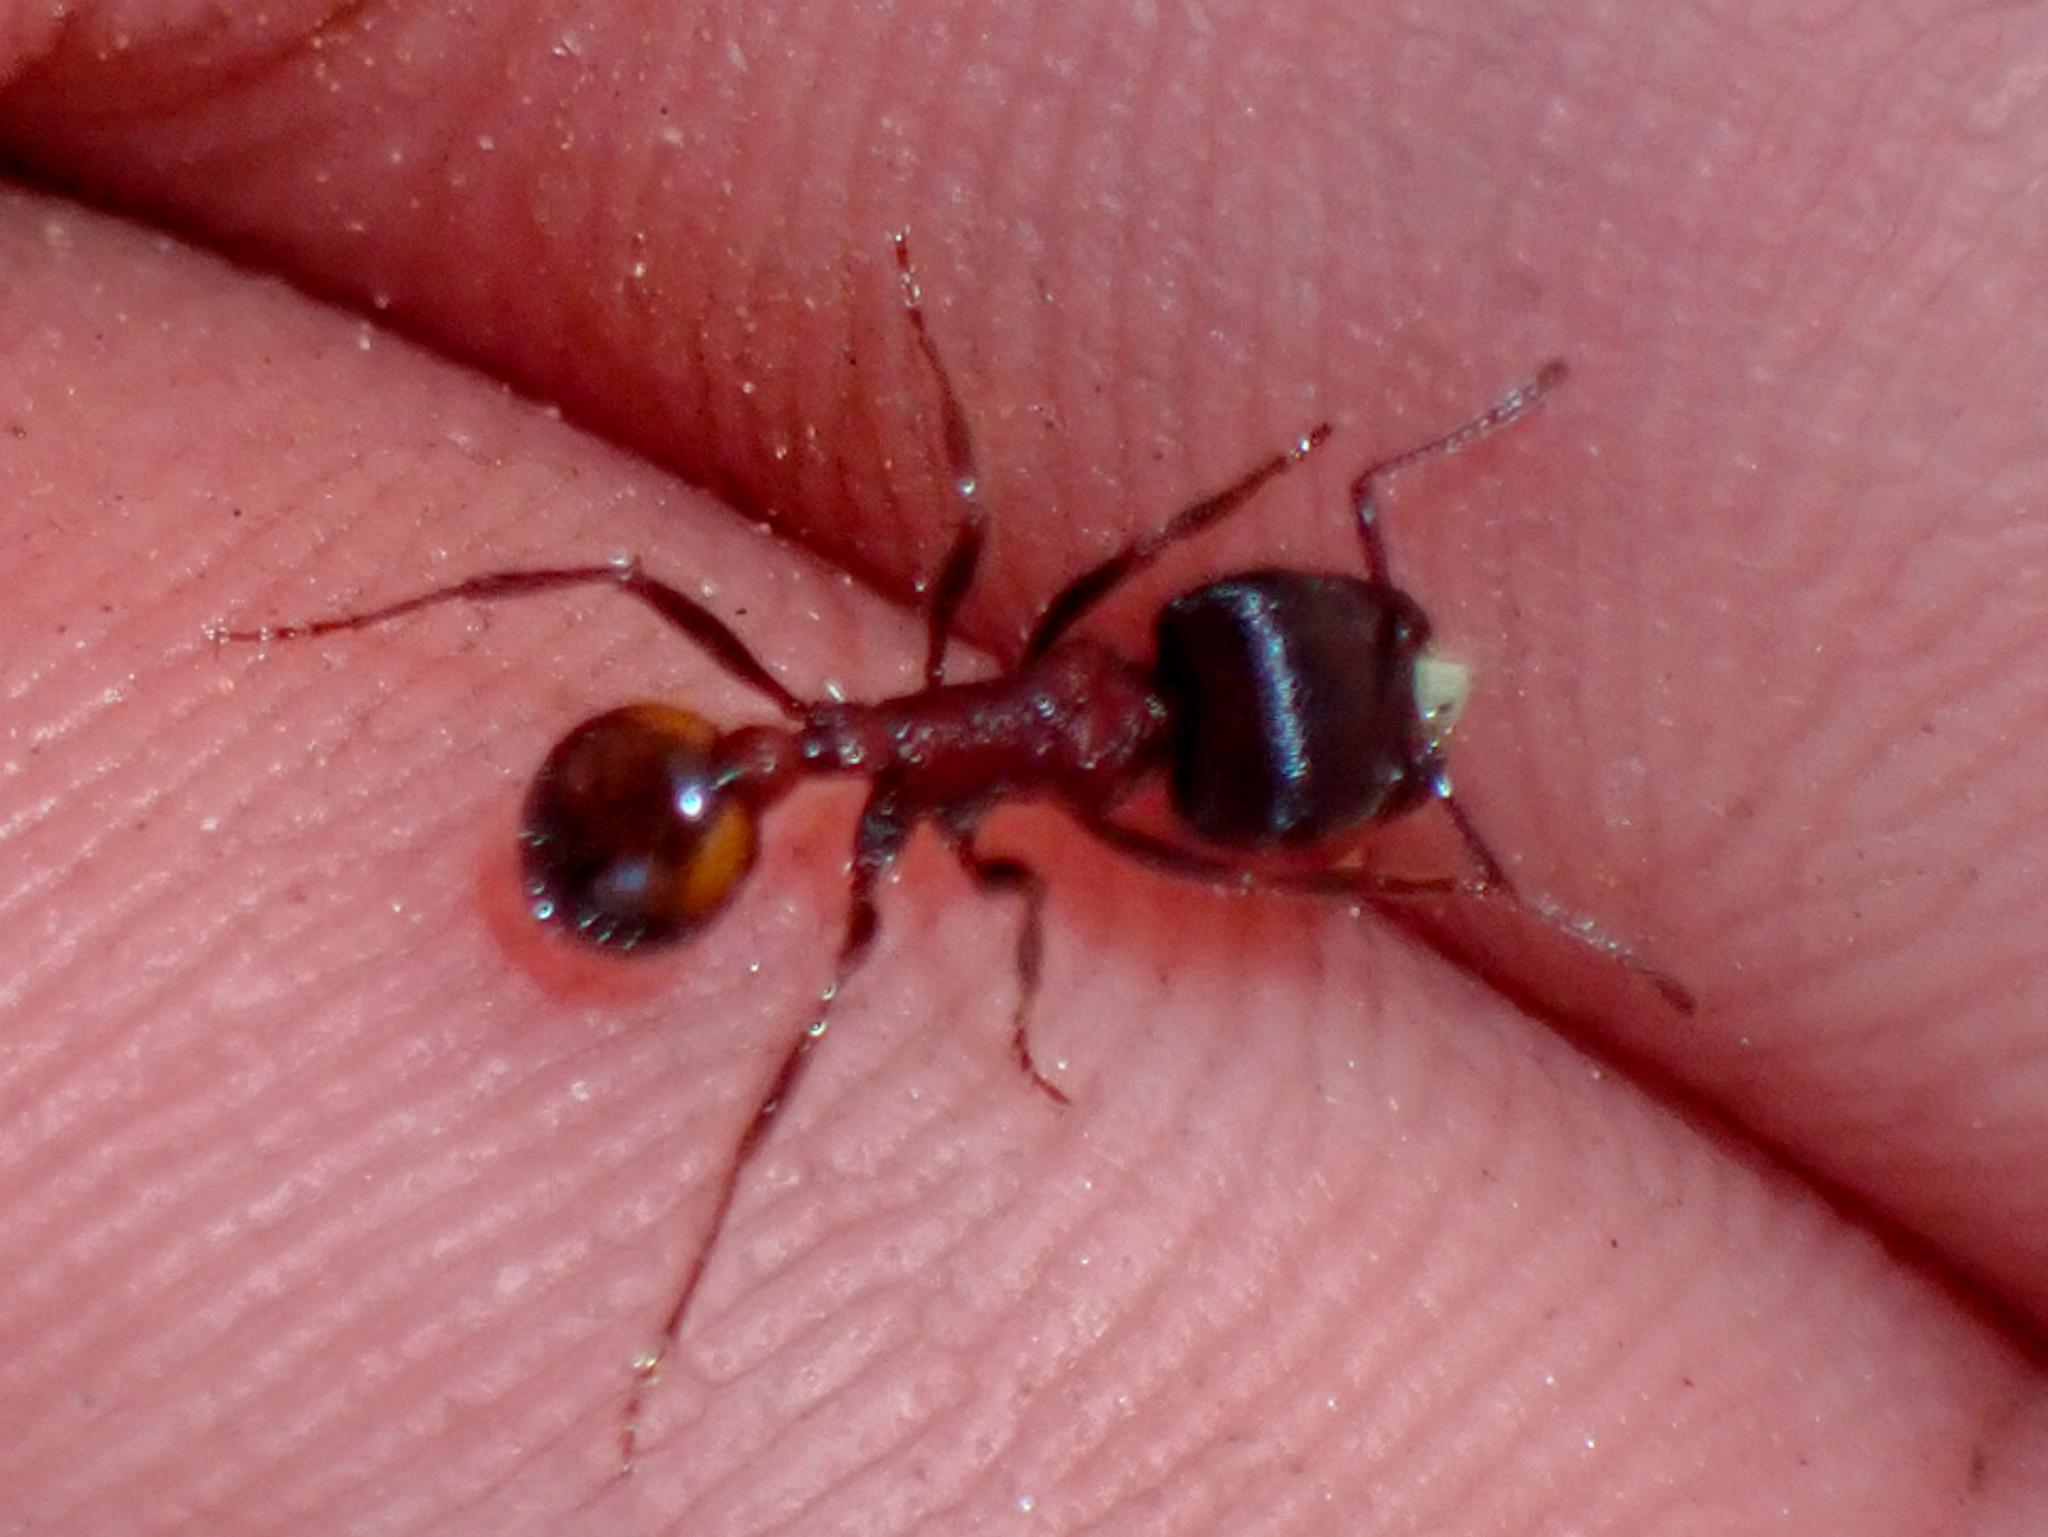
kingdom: Animalia
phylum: Arthropoda
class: Insecta
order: Hymenoptera
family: Formicidae
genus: Pogonomyrmex
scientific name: Pogonomyrmex rugosus
